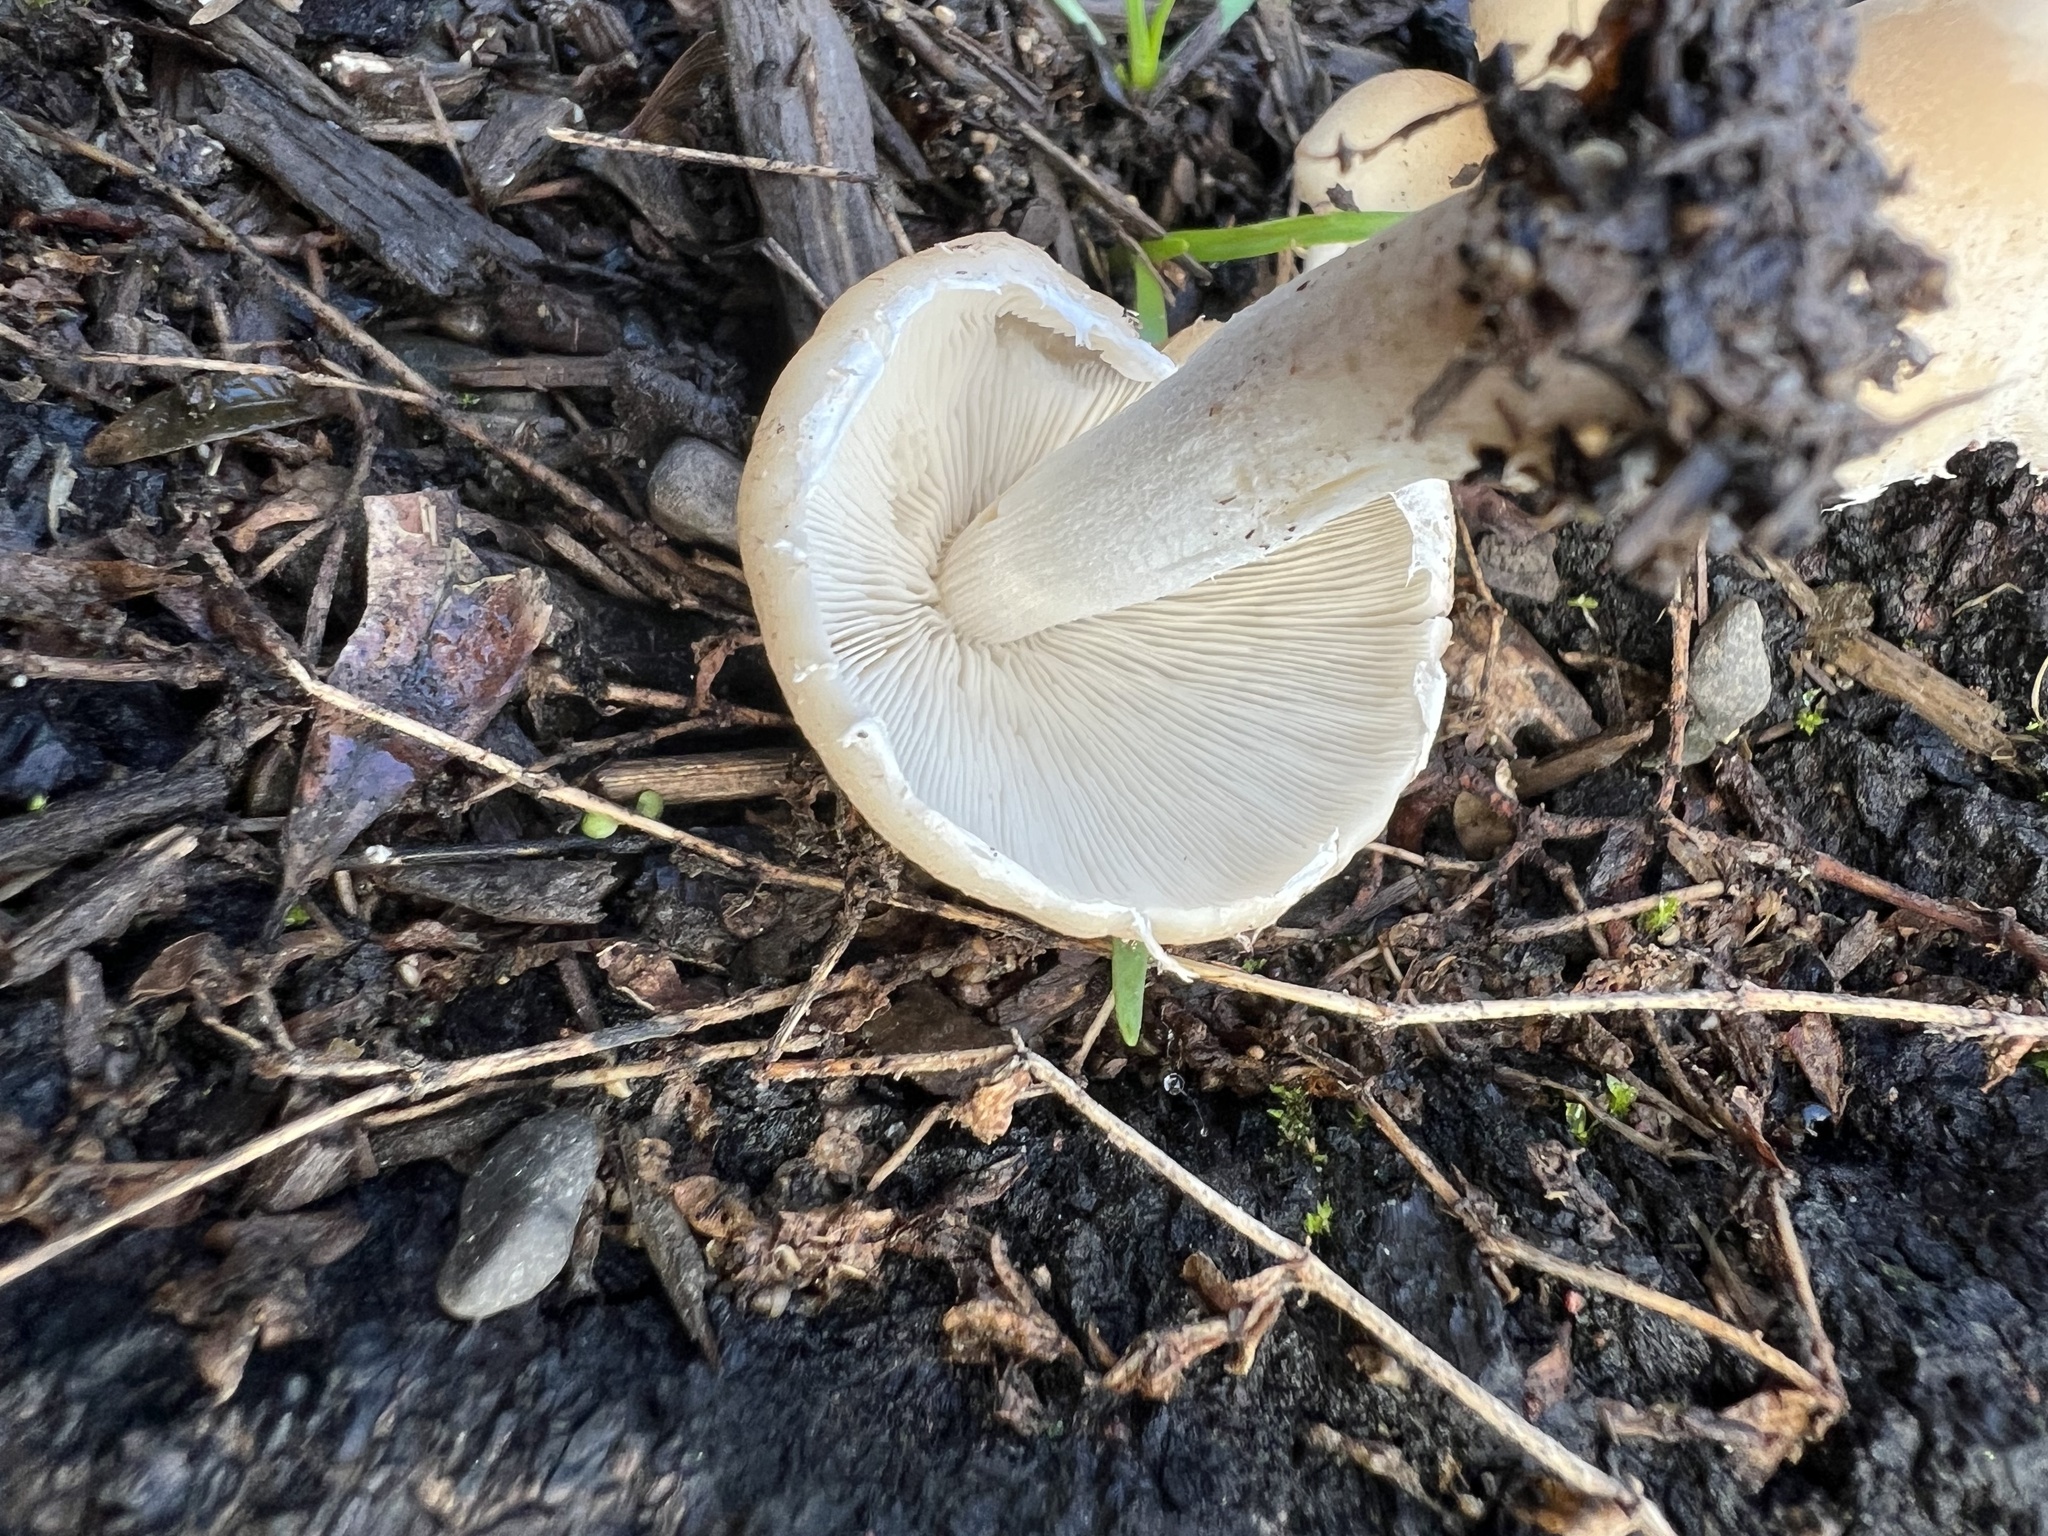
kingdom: Fungi
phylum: Basidiomycota
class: Agaricomycetes
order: Agaricales
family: Psathyrellaceae
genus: Candolleomyces
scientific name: Candolleomyces candolleanus
